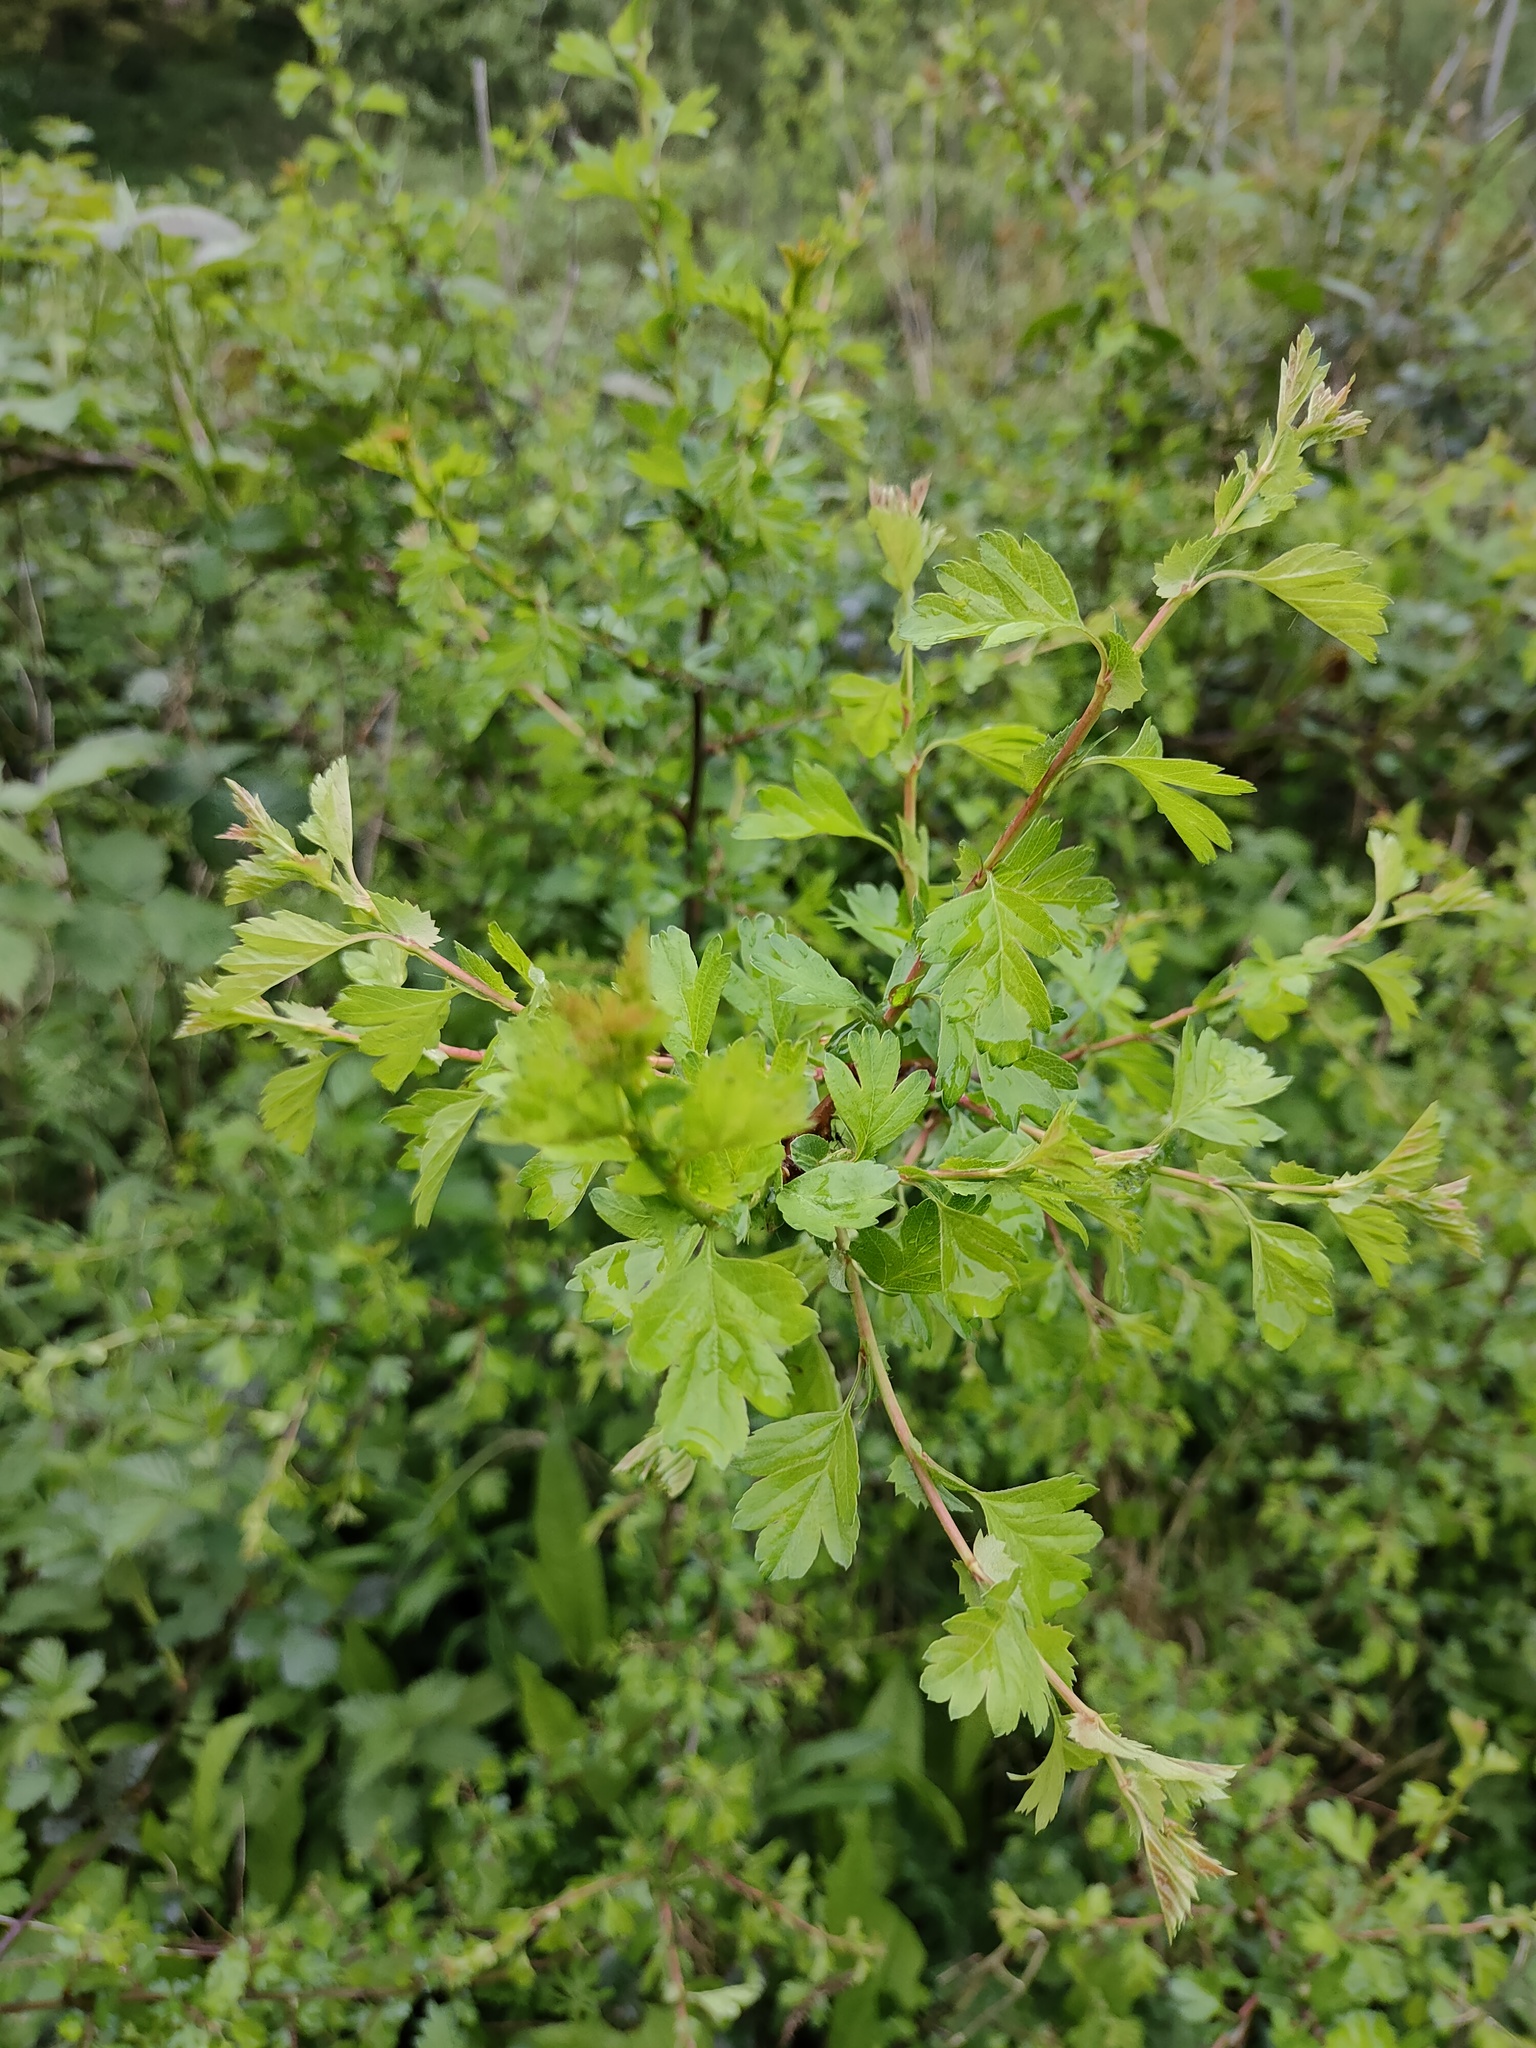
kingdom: Plantae
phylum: Tracheophyta
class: Magnoliopsida
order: Rosales
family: Rosaceae
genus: Crataegus
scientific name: Crataegus monogyna
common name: Hawthorn
